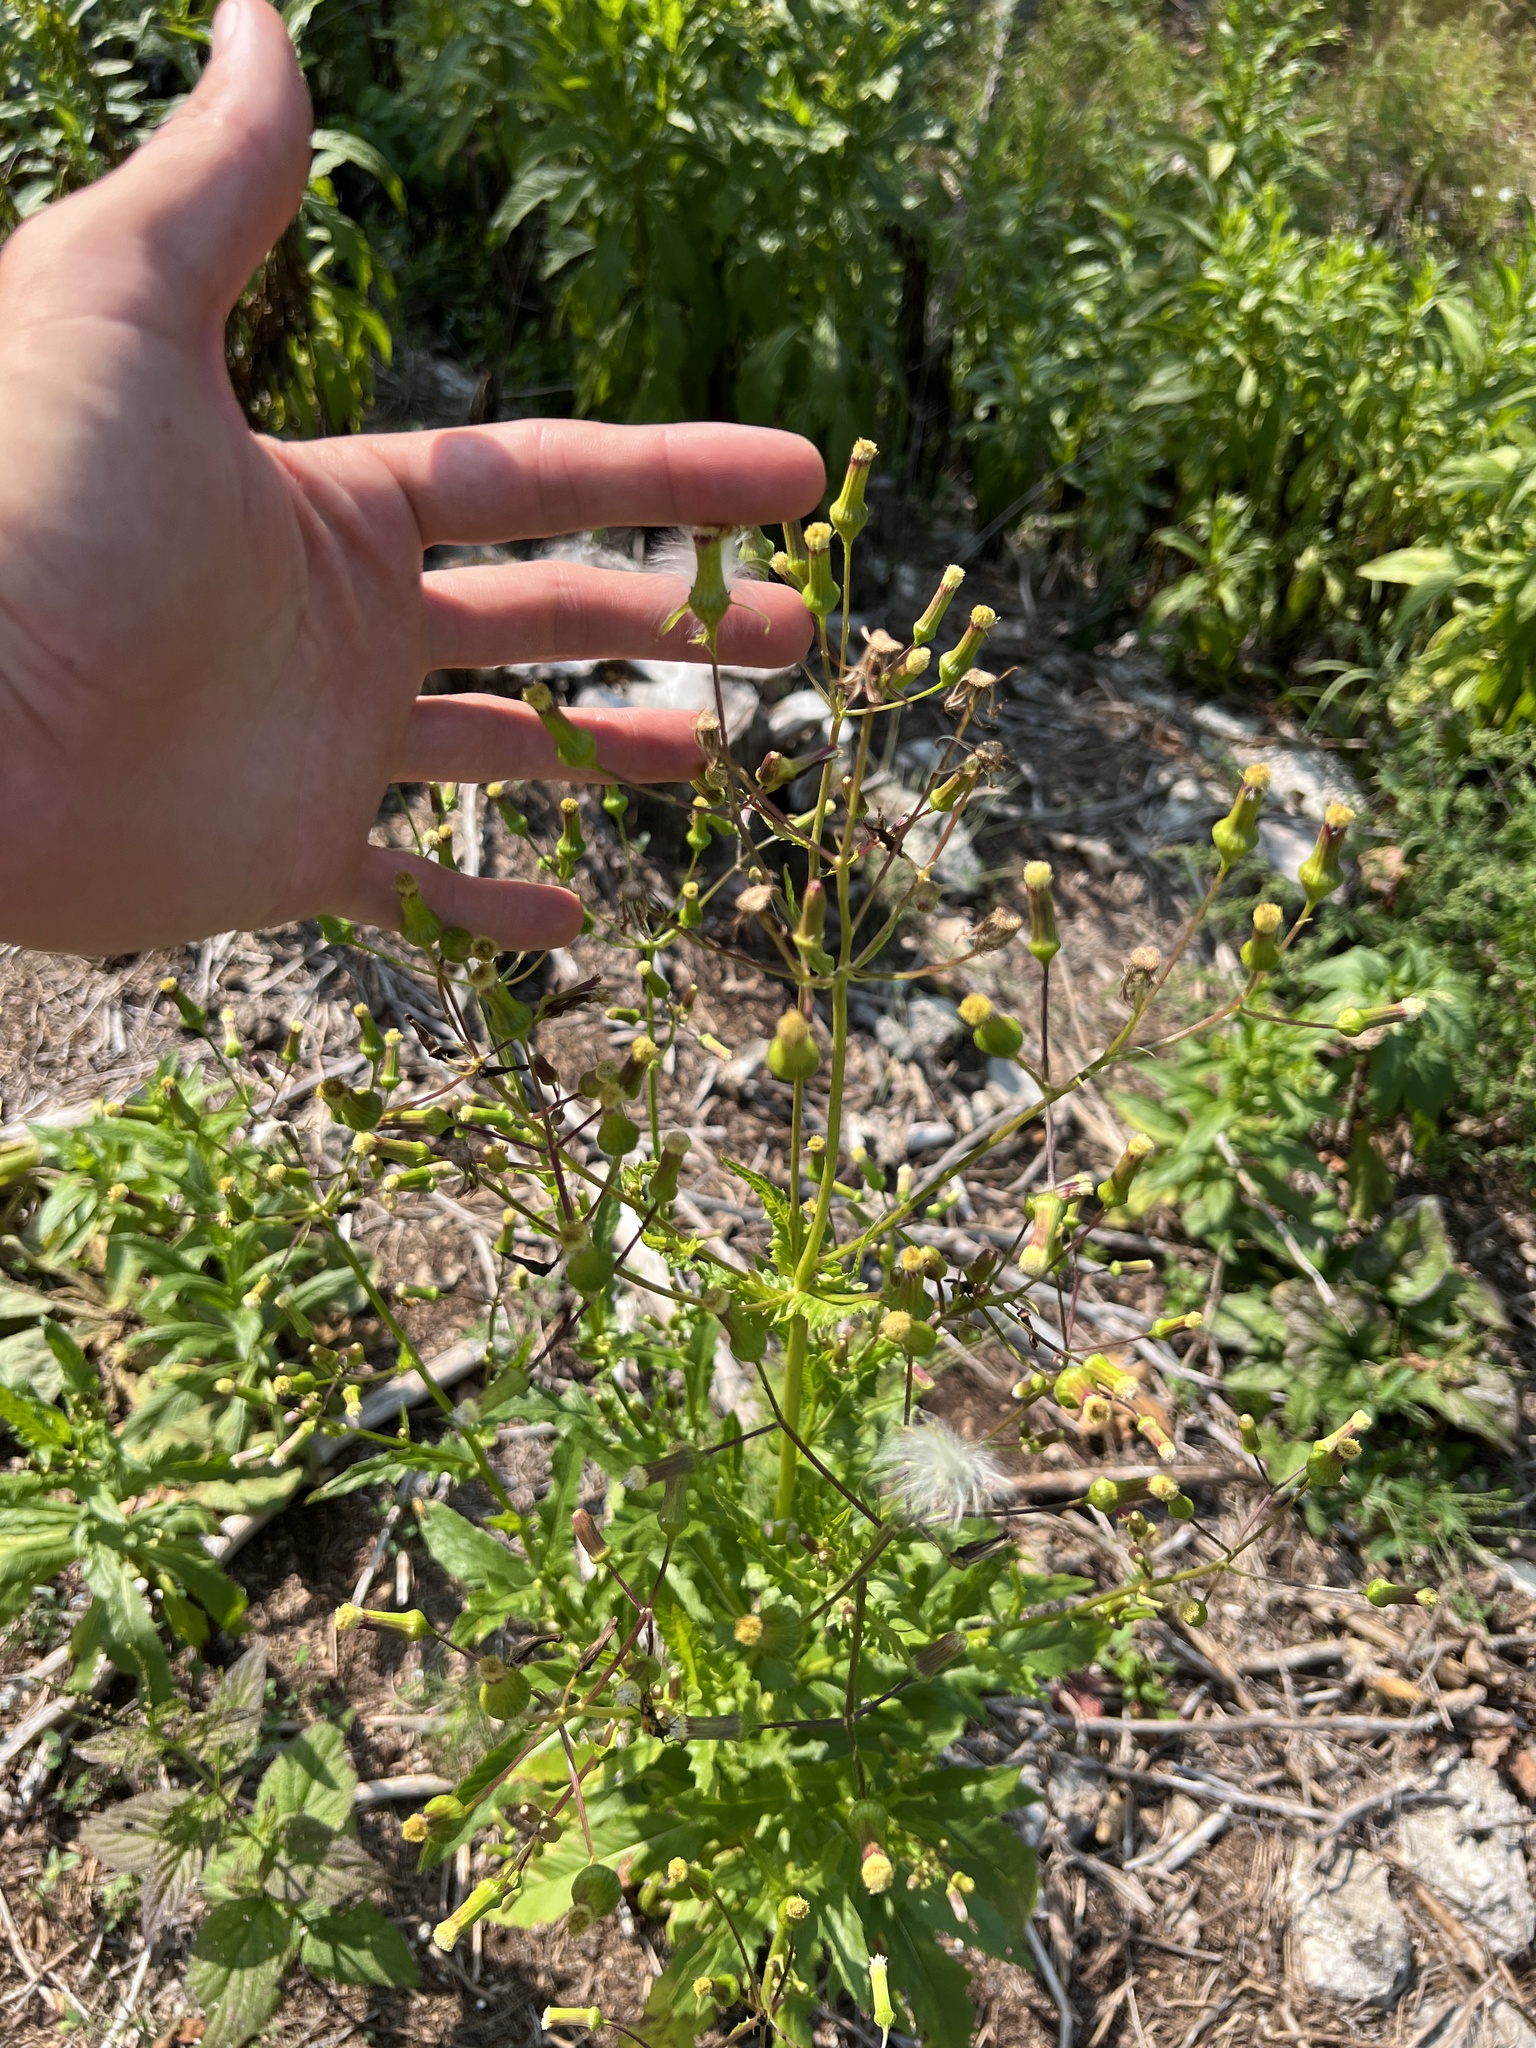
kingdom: Plantae
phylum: Tracheophyta
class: Magnoliopsida
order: Asterales
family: Asteraceae
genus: Erechtites
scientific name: Erechtites hieraciifolius
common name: American burnweed
